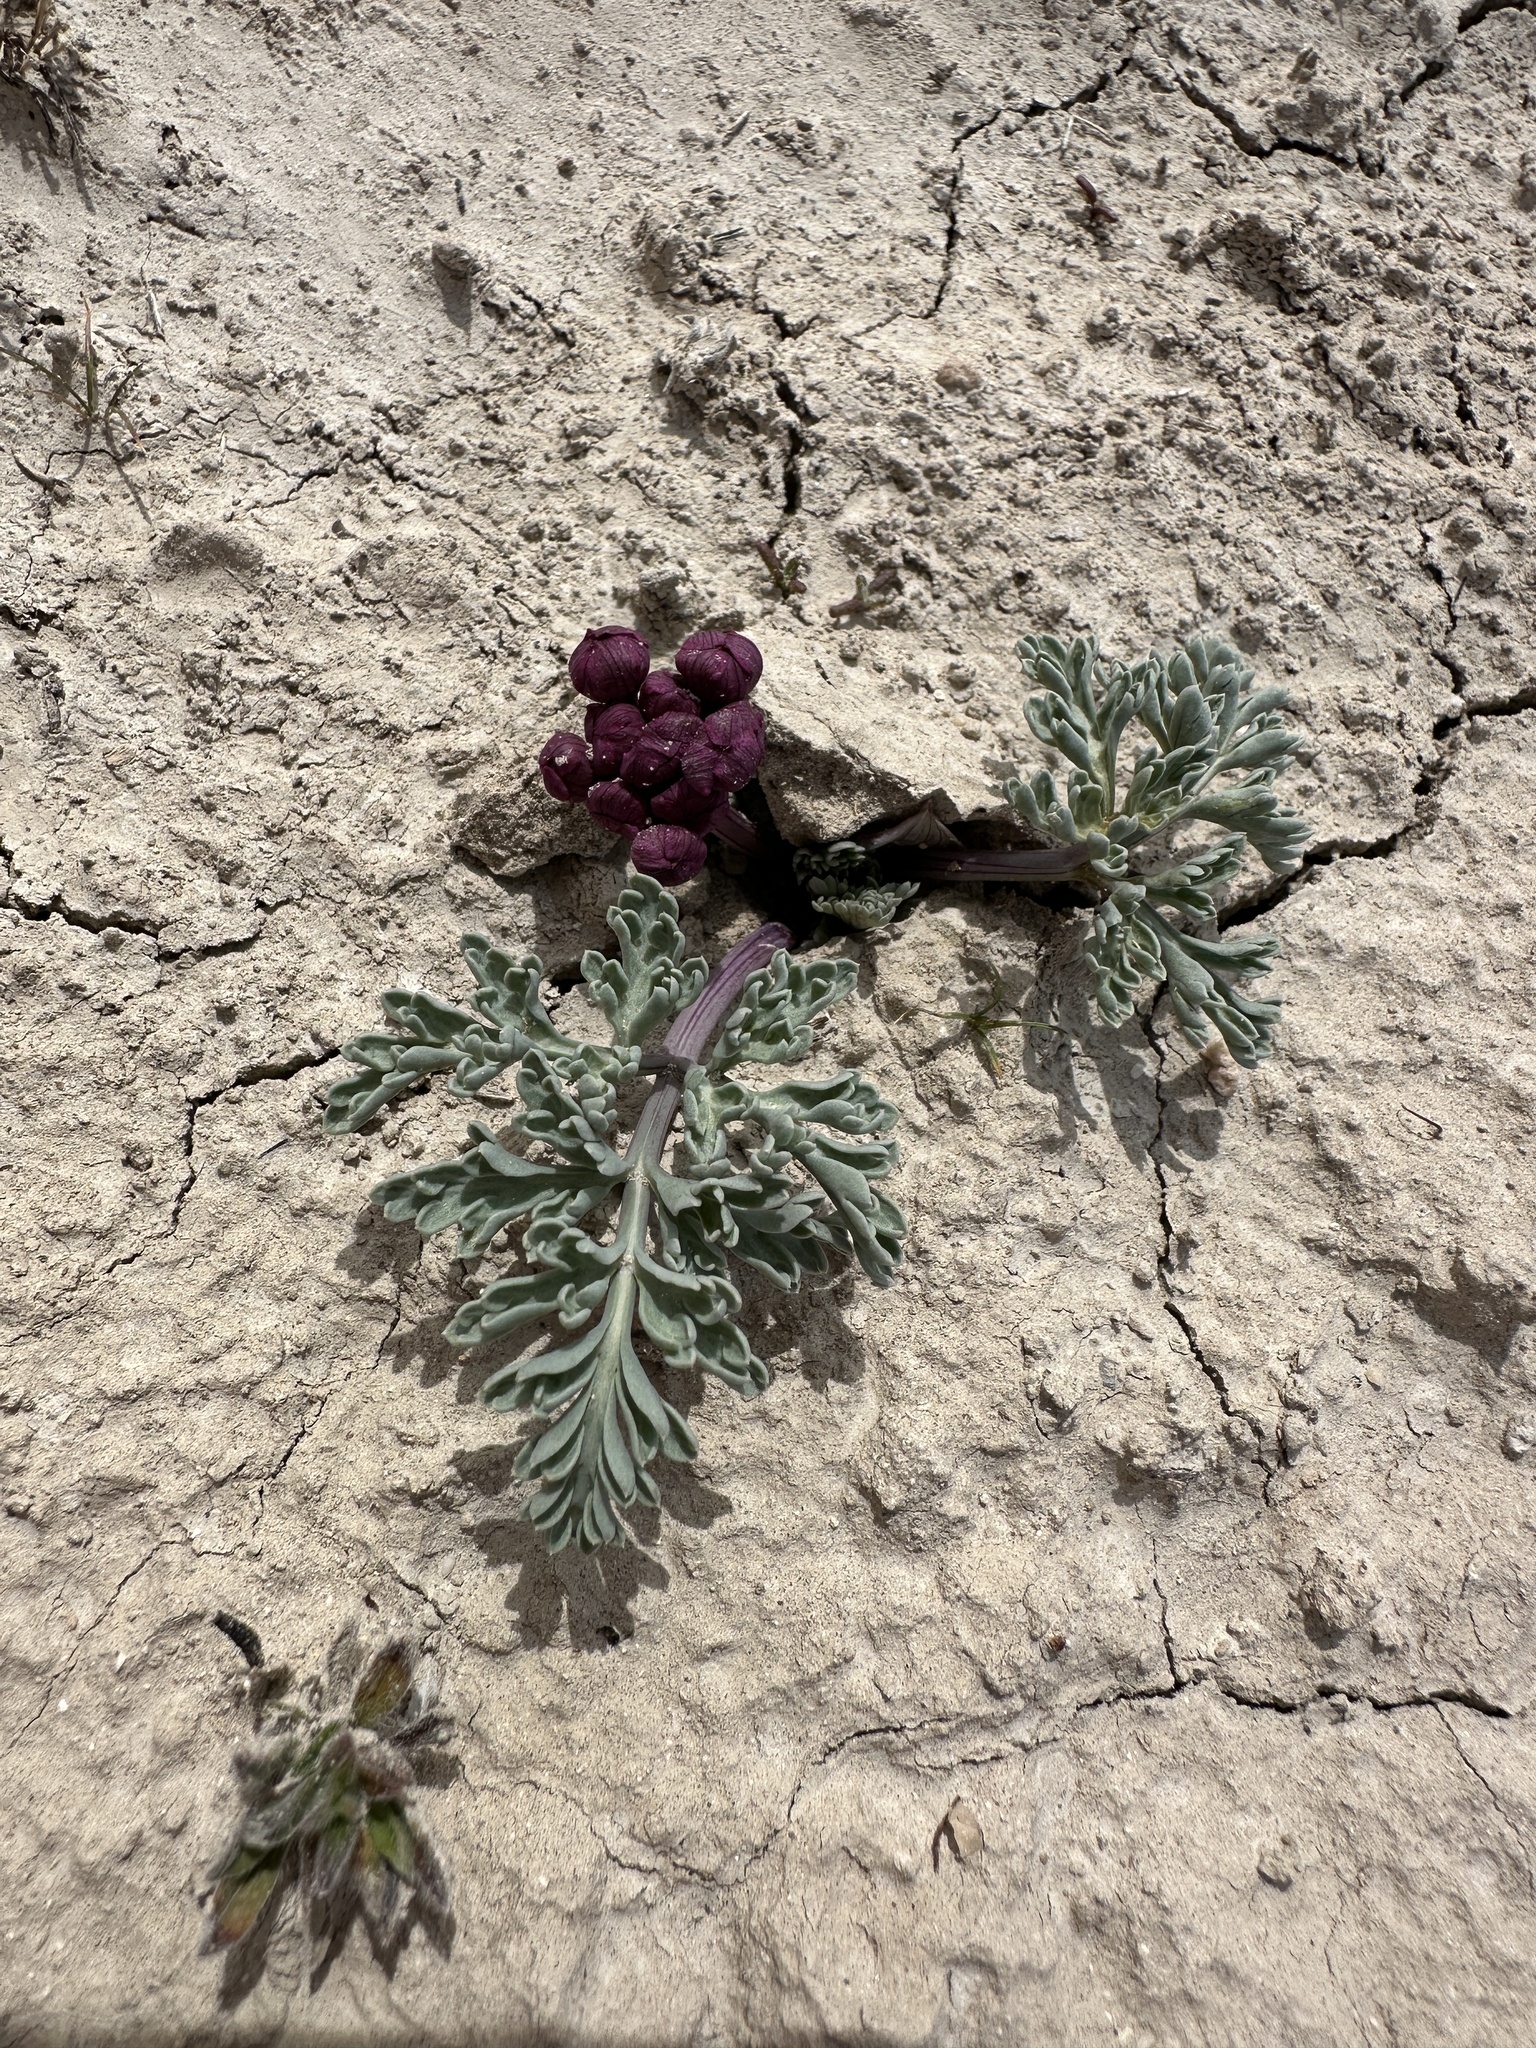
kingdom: Plantae
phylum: Tracheophyta
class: Magnoliopsida
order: Apiales
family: Apiaceae
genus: Vesper
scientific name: Vesper multinervatus
